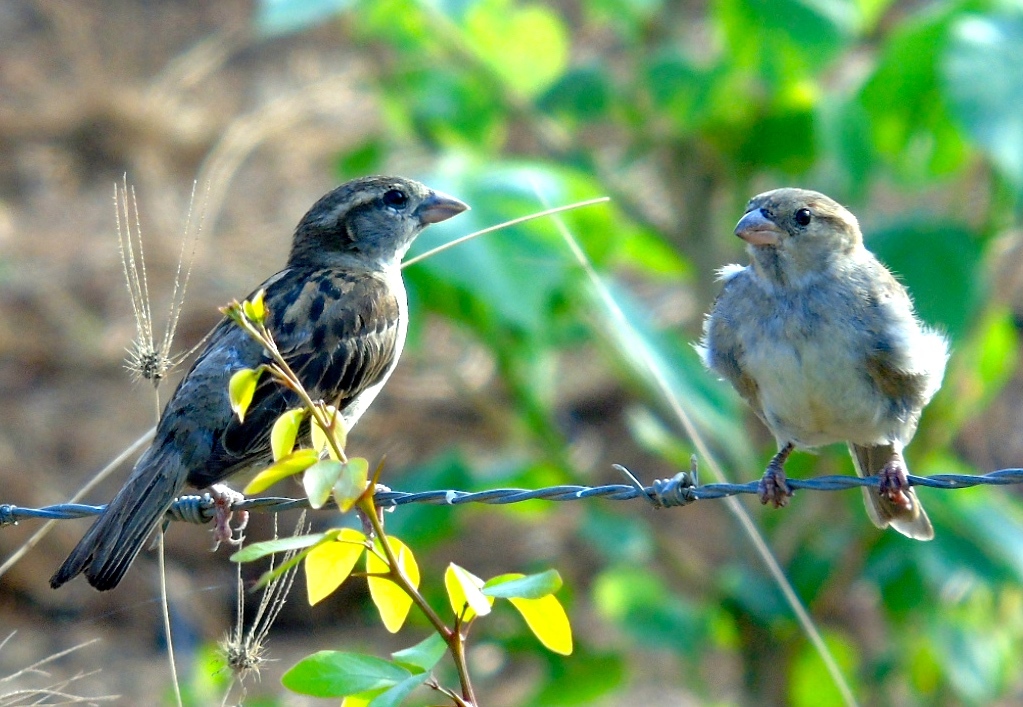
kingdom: Animalia
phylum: Chordata
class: Aves
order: Passeriformes
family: Passeridae
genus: Passer
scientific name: Passer domesticus
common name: House sparrow
